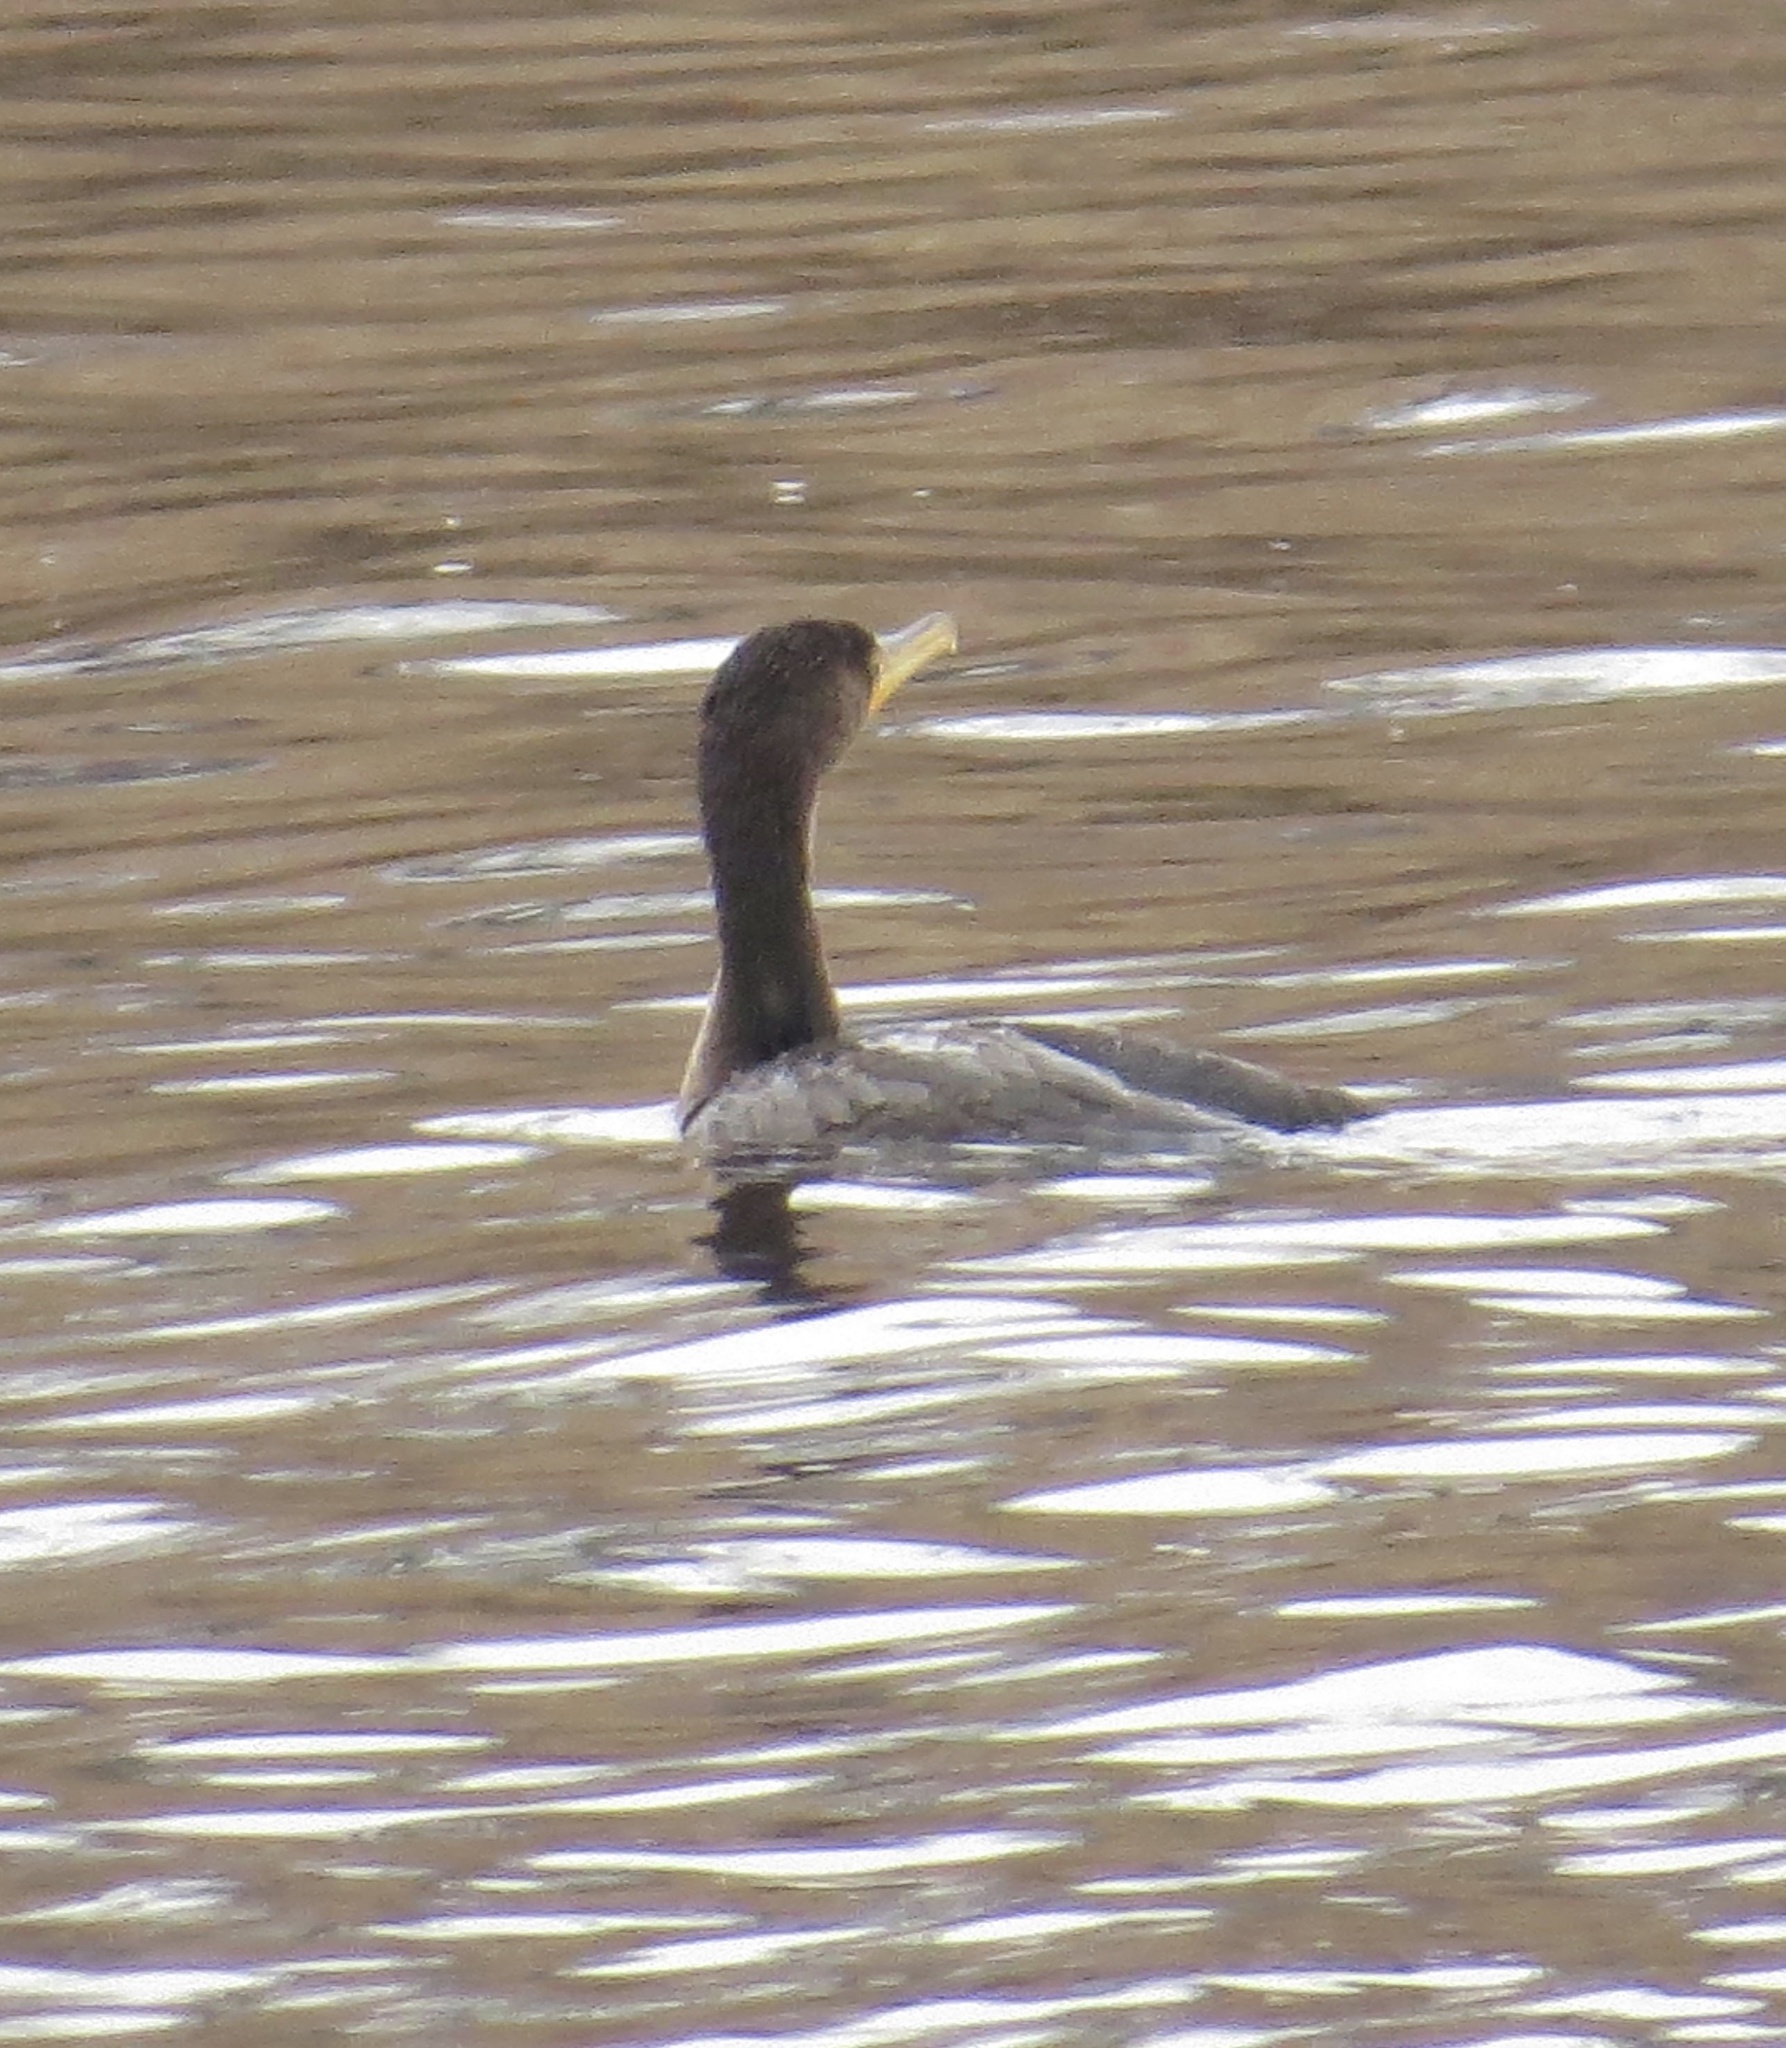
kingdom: Animalia
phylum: Chordata
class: Aves
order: Suliformes
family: Phalacrocoracidae
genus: Phalacrocorax
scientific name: Phalacrocorax auritus
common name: Double-crested cormorant
